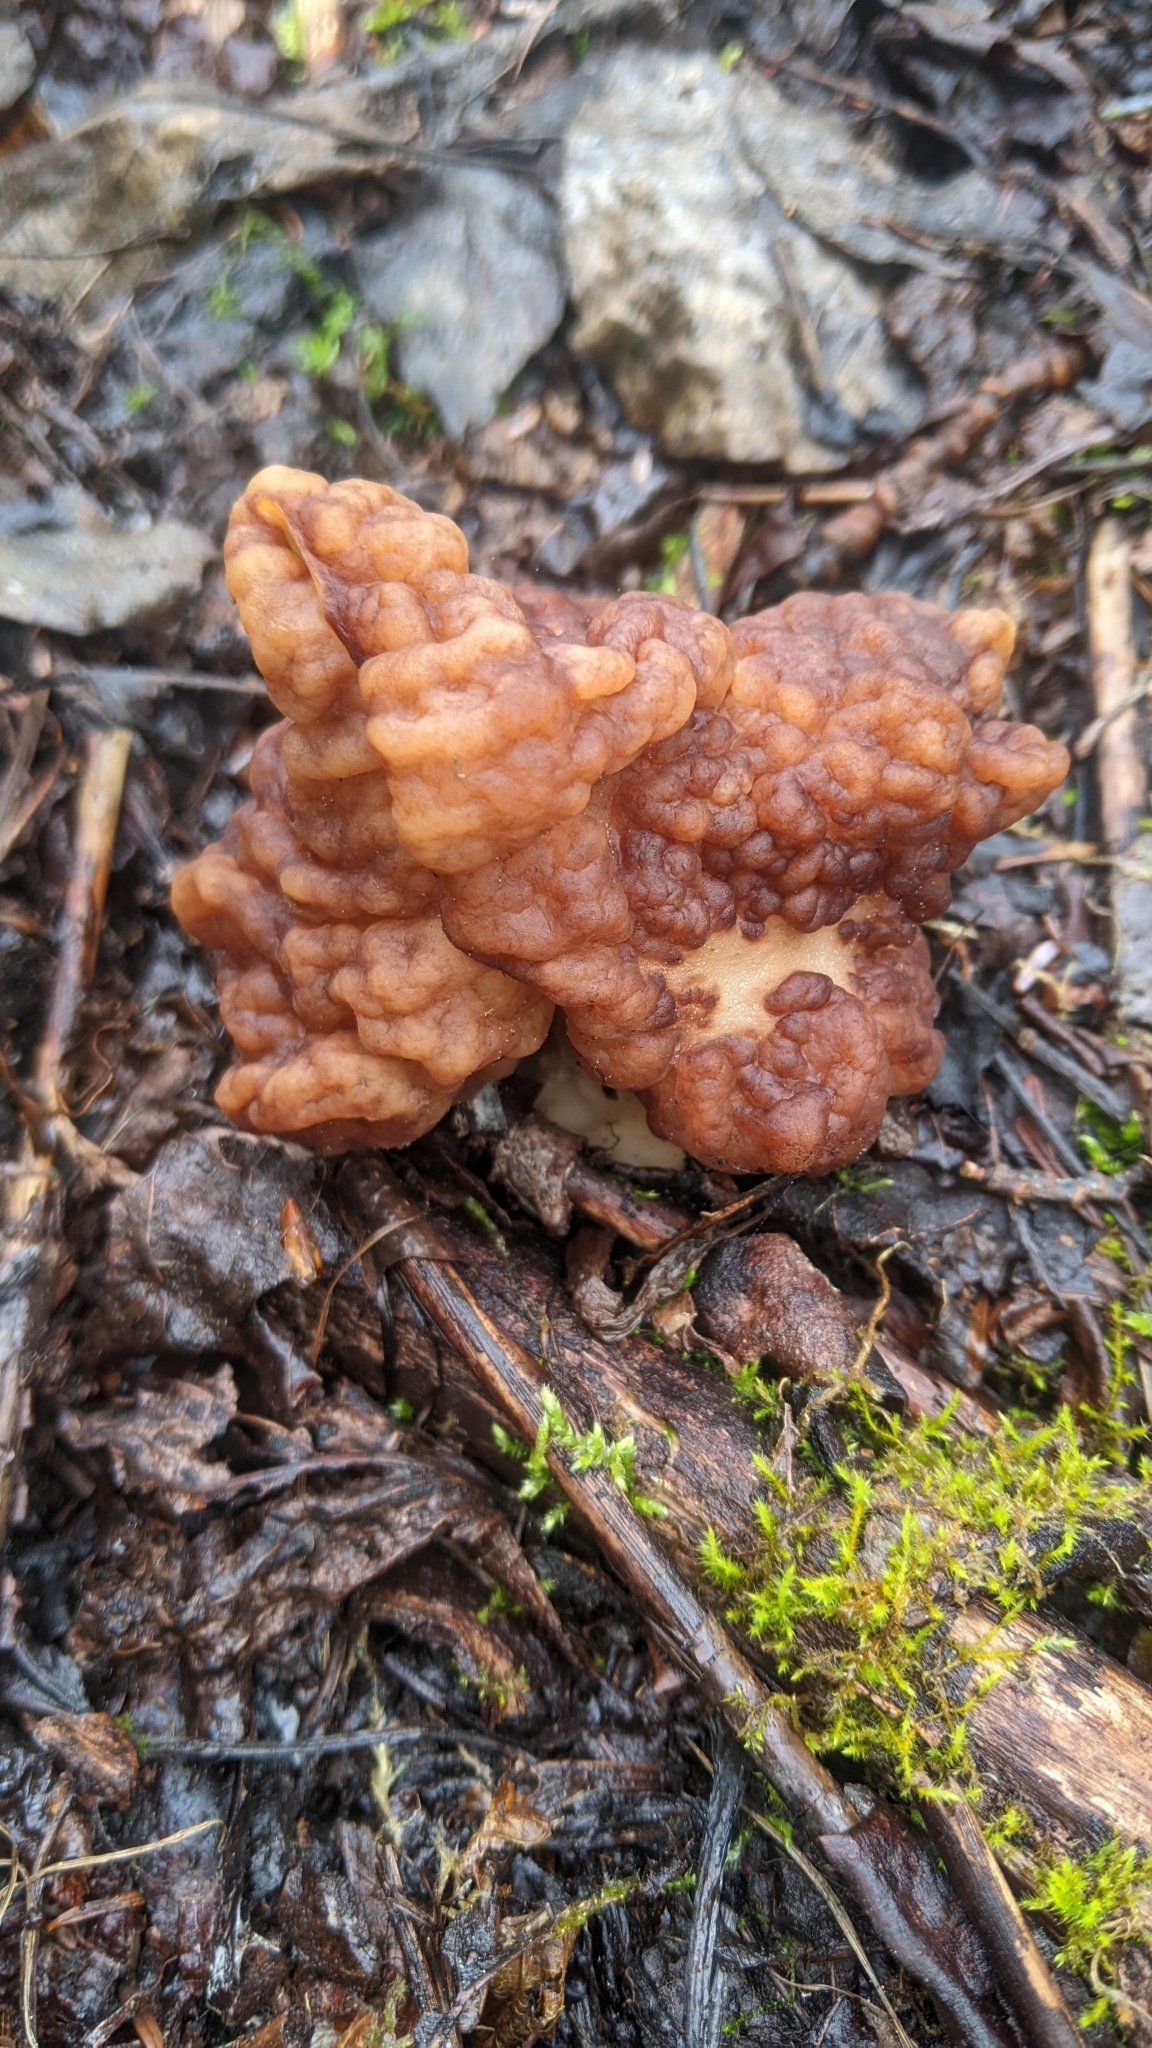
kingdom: Fungi
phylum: Ascomycota
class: Pezizomycetes
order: Pezizales
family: Discinaceae
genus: Gyromitra
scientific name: Gyromitra esculenta
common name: False morel
